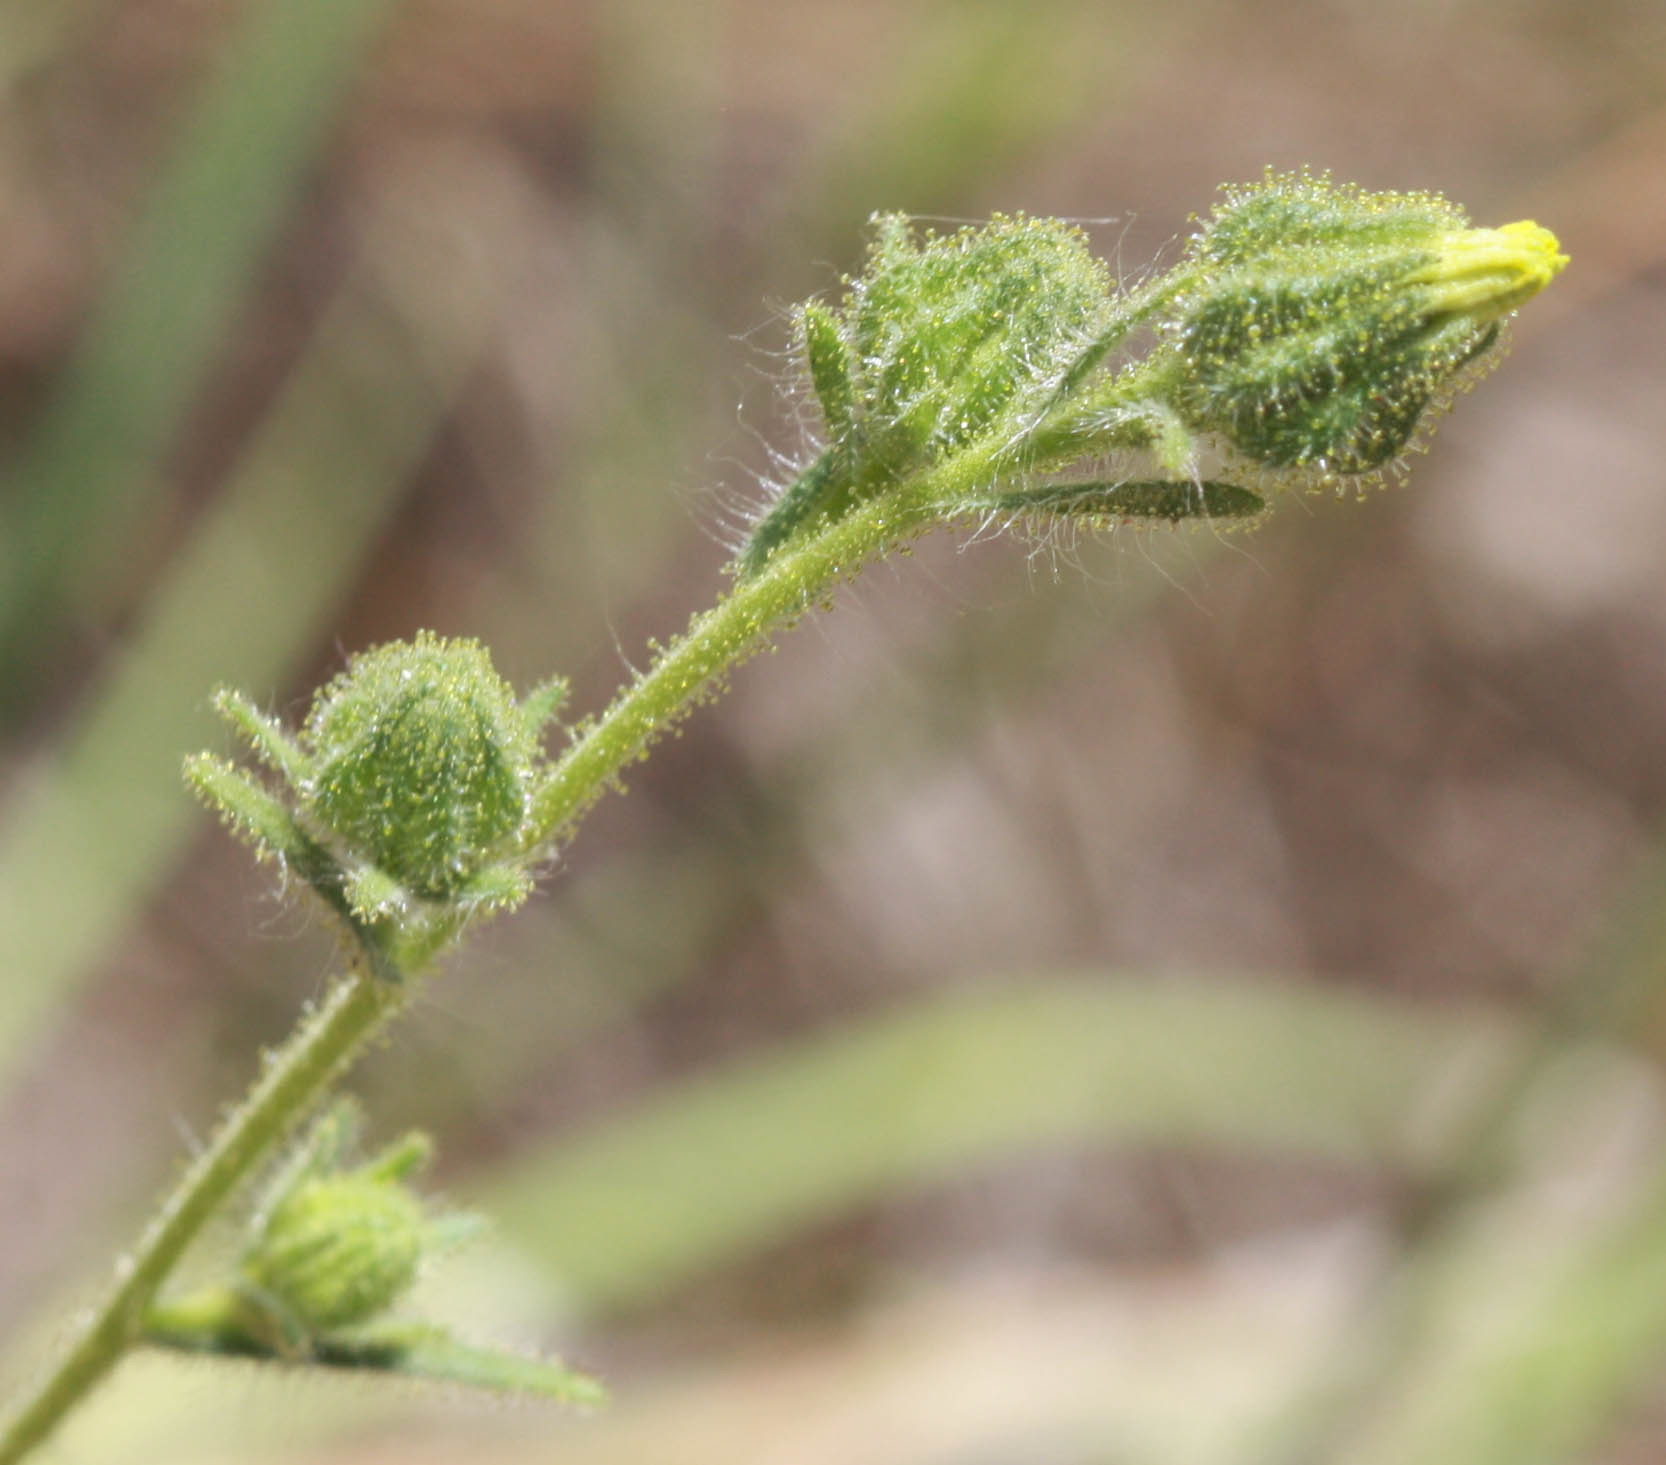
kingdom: Plantae
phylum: Tracheophyta
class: Magnoliopsida
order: Asterales
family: Asteraceae
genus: Madia
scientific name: Madia gracilis
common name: Grassy tarweed
